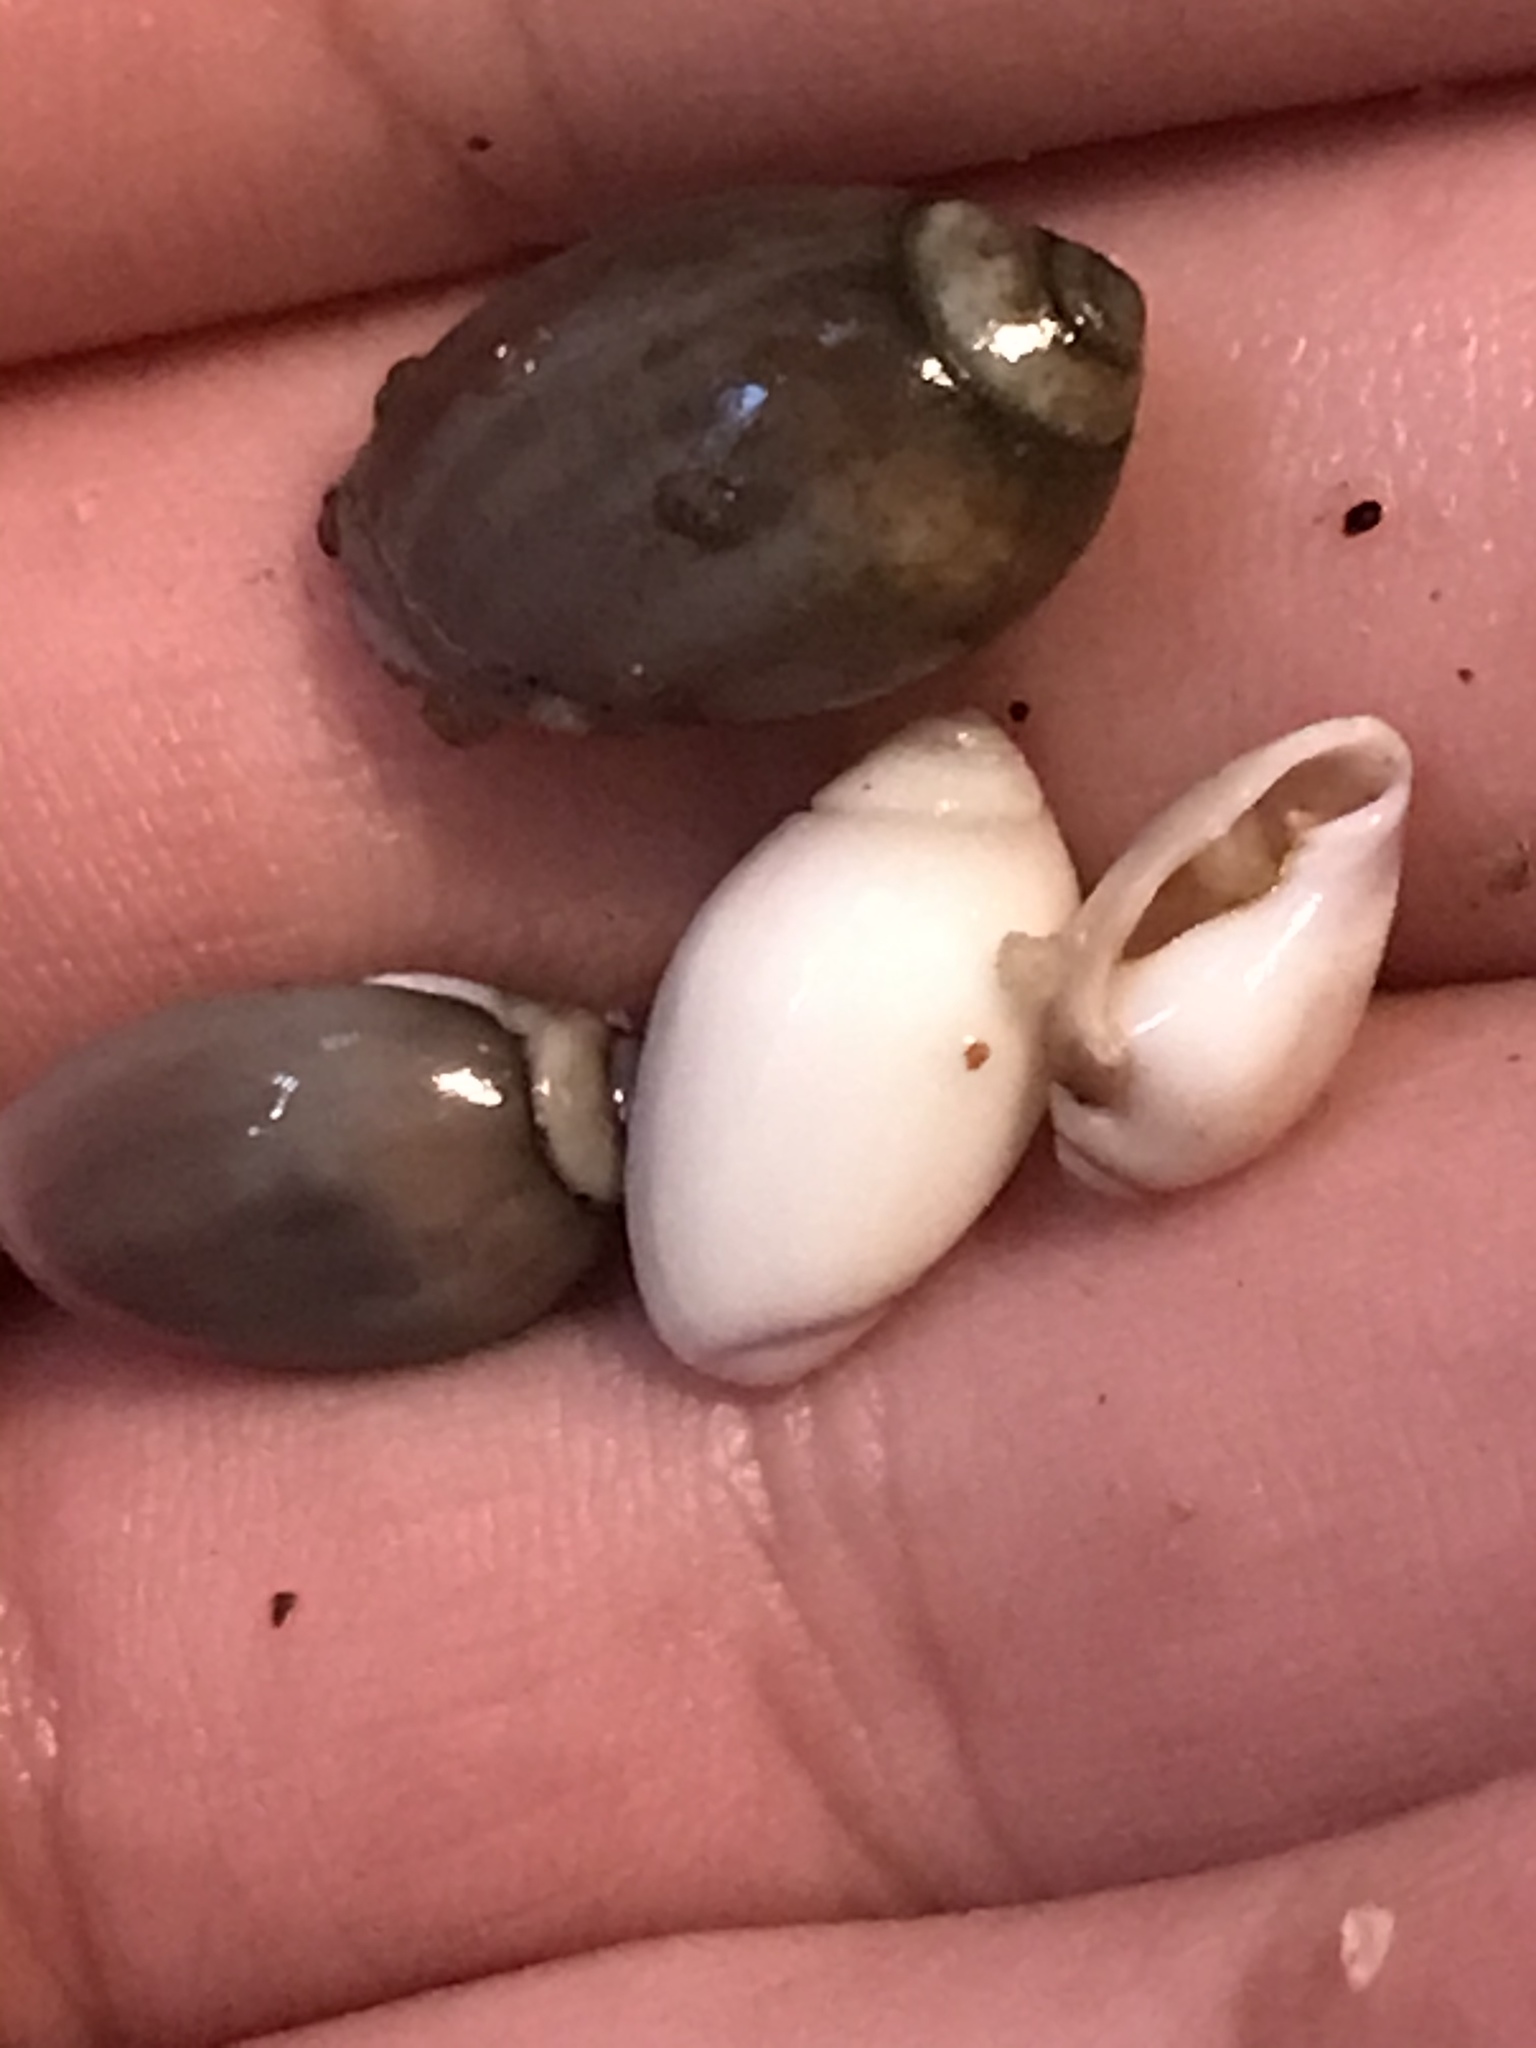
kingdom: Animalia
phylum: Mollusca
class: Gastropoda
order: Neogastropoda
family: Olividae
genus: Callianax
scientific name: Callianax biplicata
